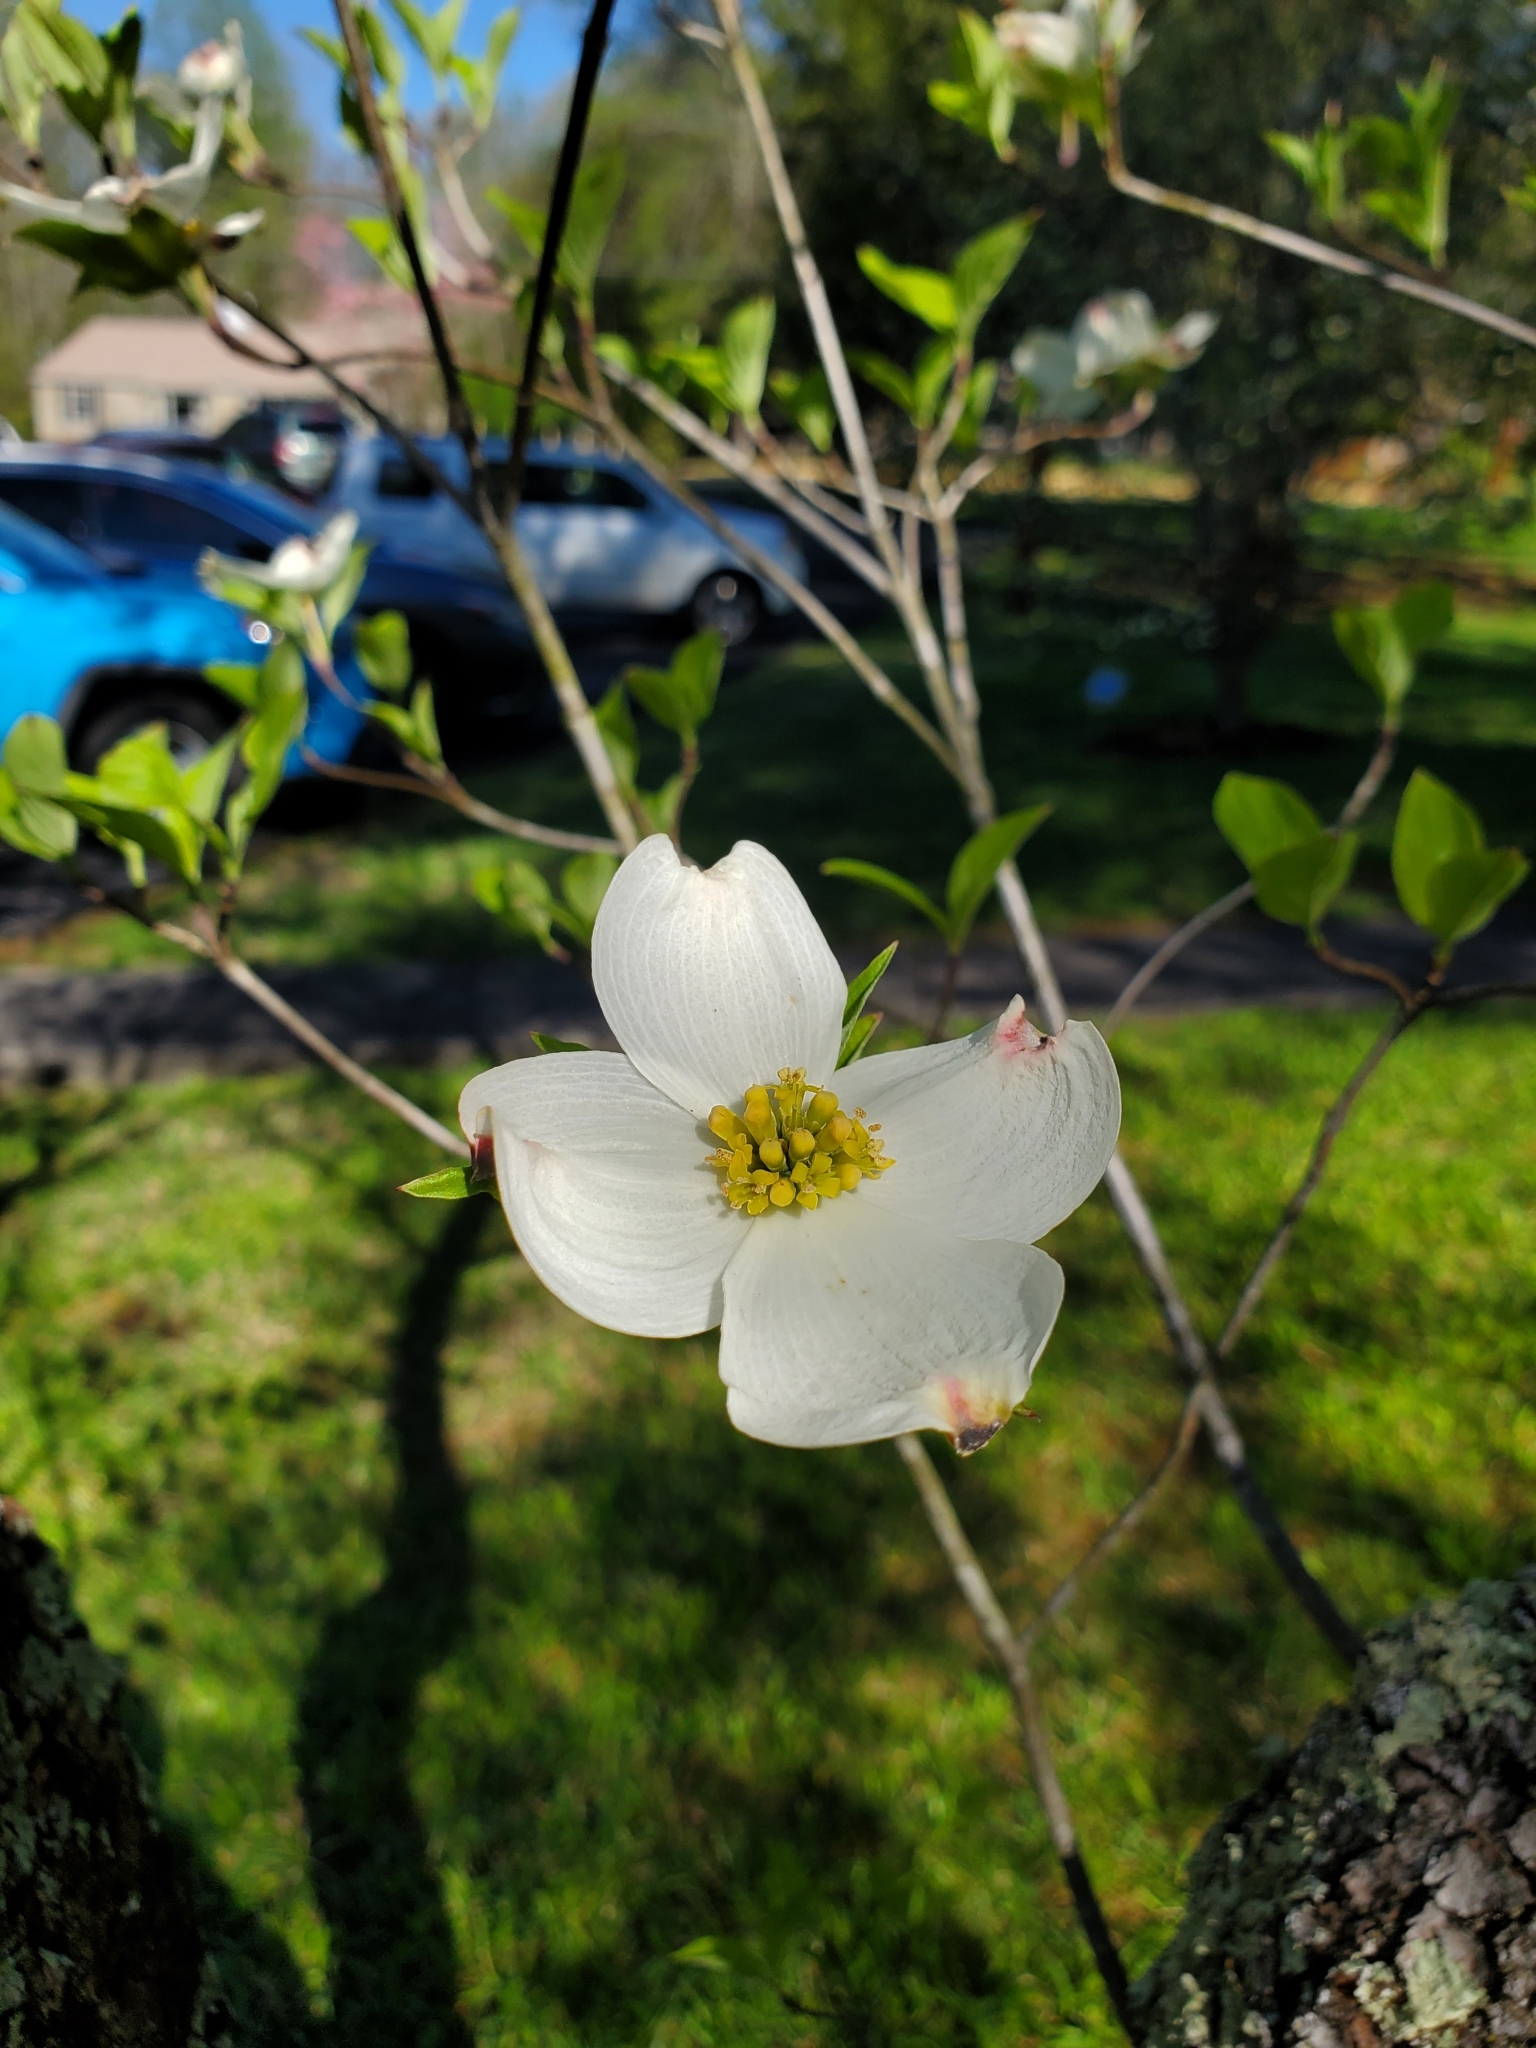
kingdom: Plantae
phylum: Tracheophyta
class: Magnoliopsida
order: Cornales
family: Cornaceae
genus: Cornus
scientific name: Cornus florida
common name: Flowering dogwood
